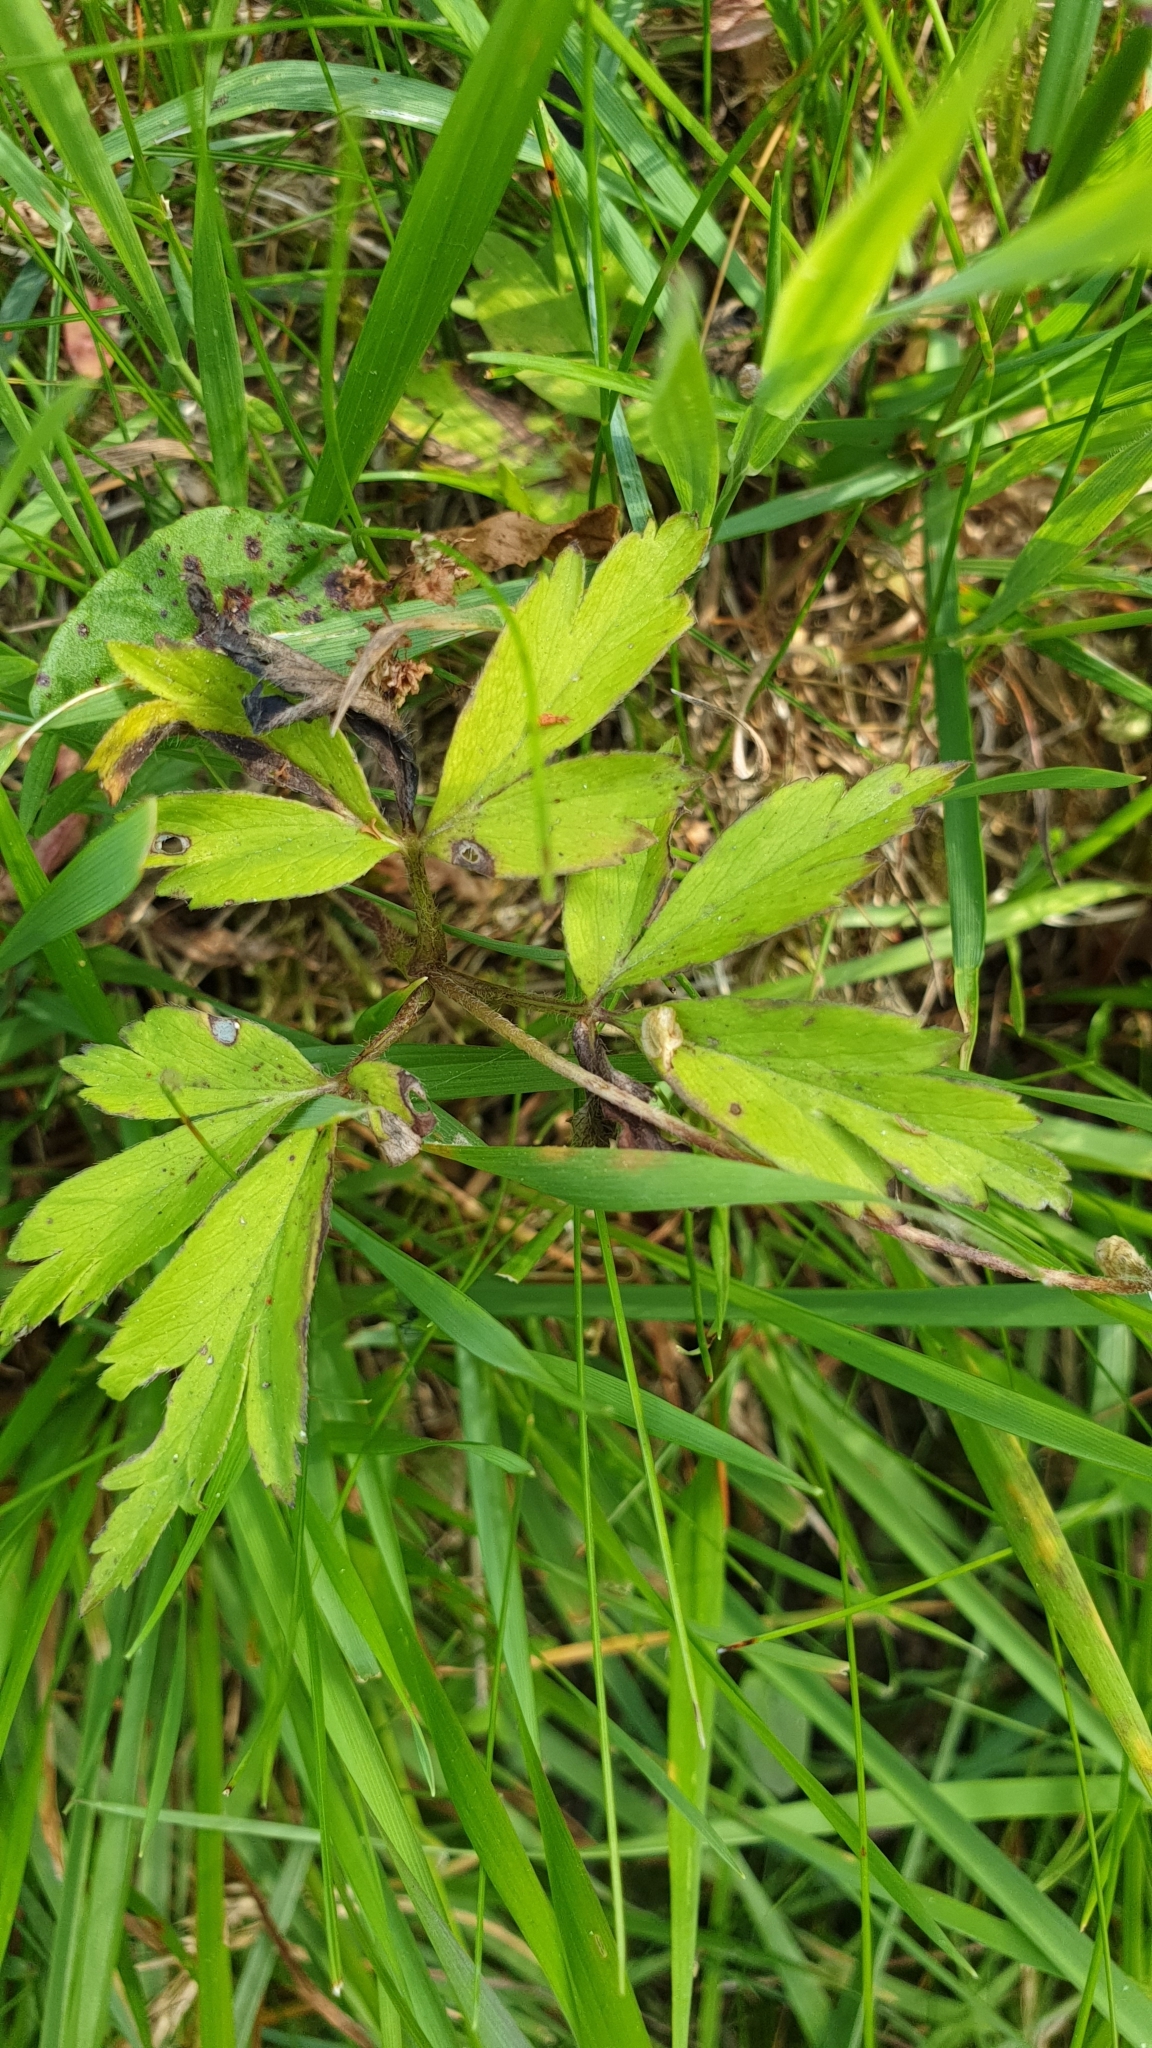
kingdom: Plantae
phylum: Tracheophyta
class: Magnoliopsida
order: Ranunculales
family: Ranunculaceae
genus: Anemone
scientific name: Anemone nemorosa
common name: Wood anemone
